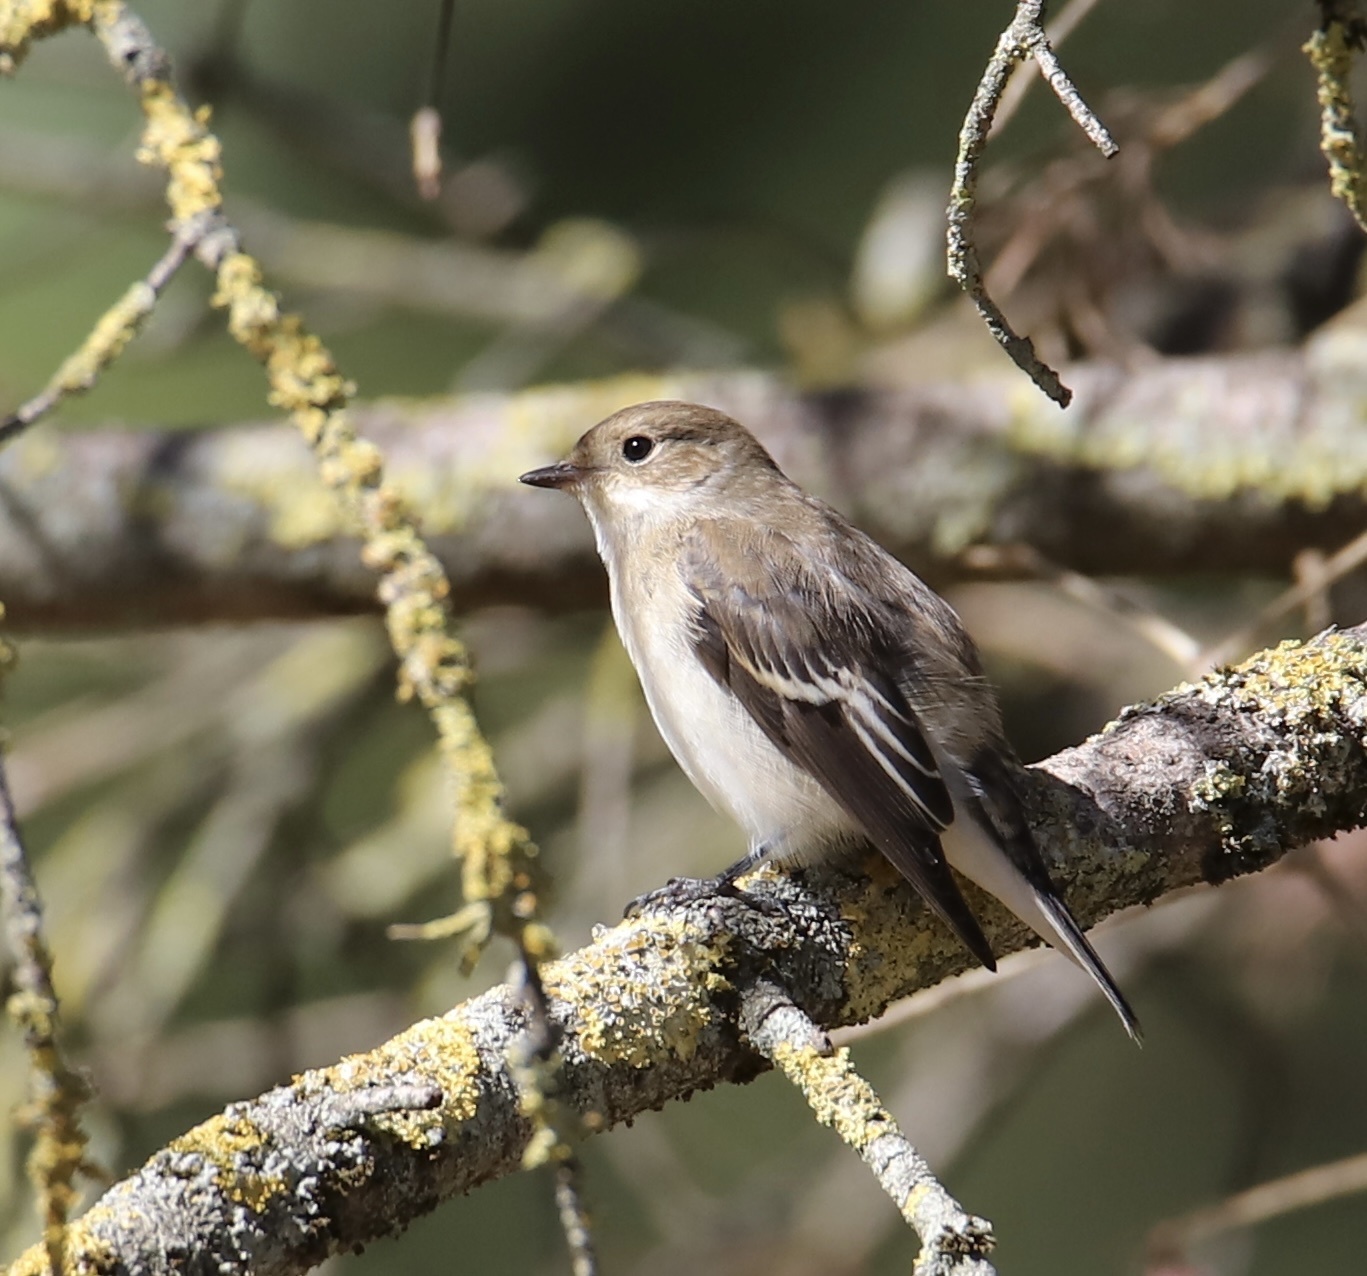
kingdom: Animalia
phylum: Chordata
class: Aves
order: Passeriformes
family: Muscicapidae
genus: Ficedula
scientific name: Ficedula hypoleuca
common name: European pied flycatcher
